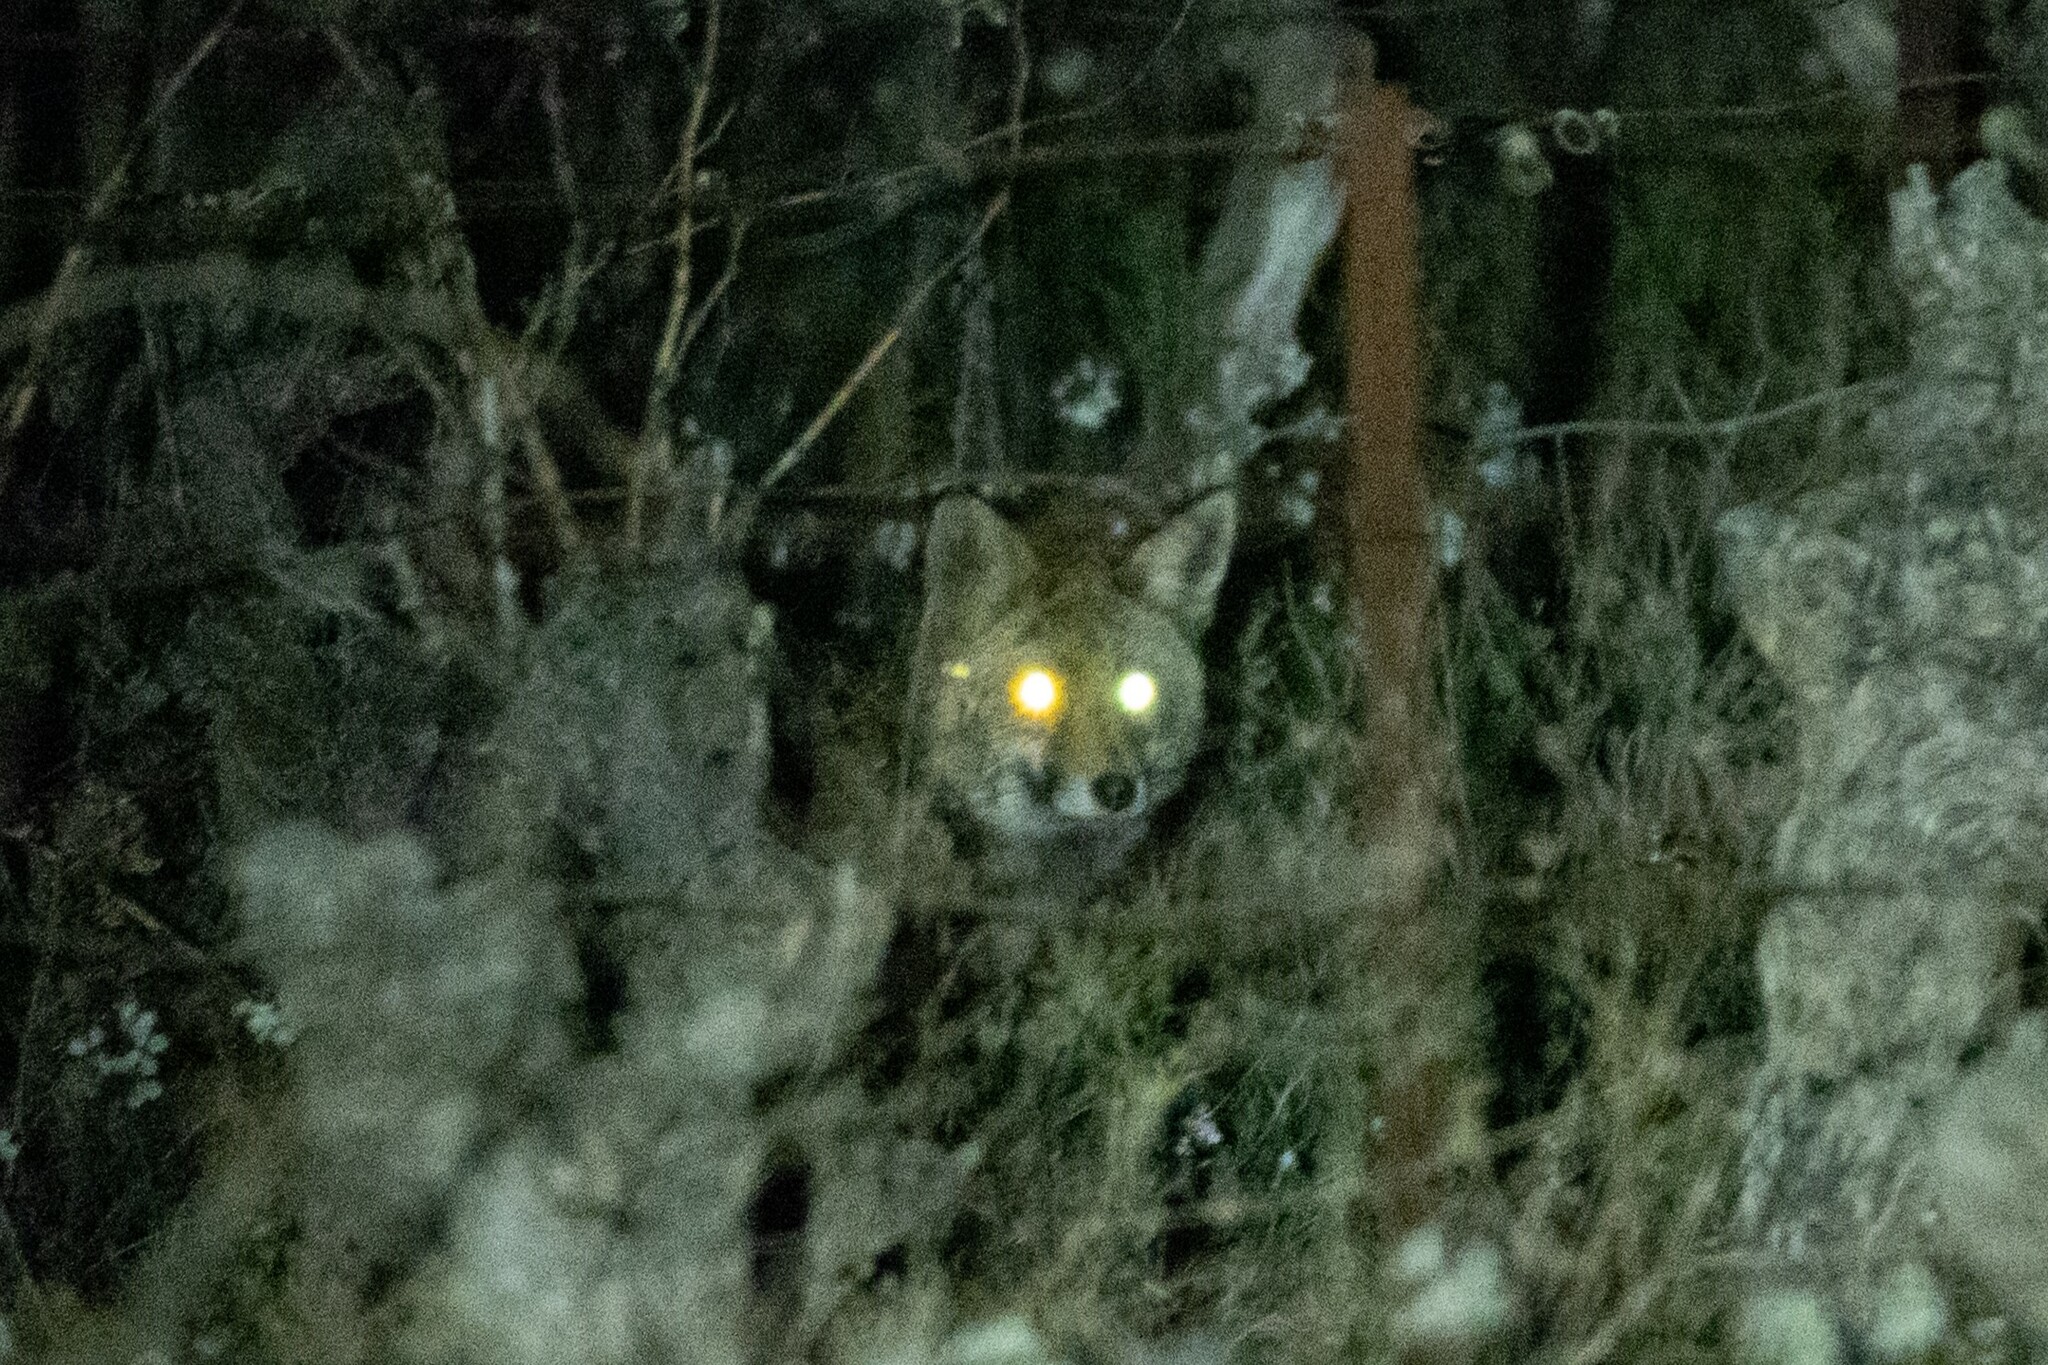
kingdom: Animalia
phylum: Chordata
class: Mammalia
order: Carnivora
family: Canidae
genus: Vulpes
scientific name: Vulpes vulpes
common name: Red fox
